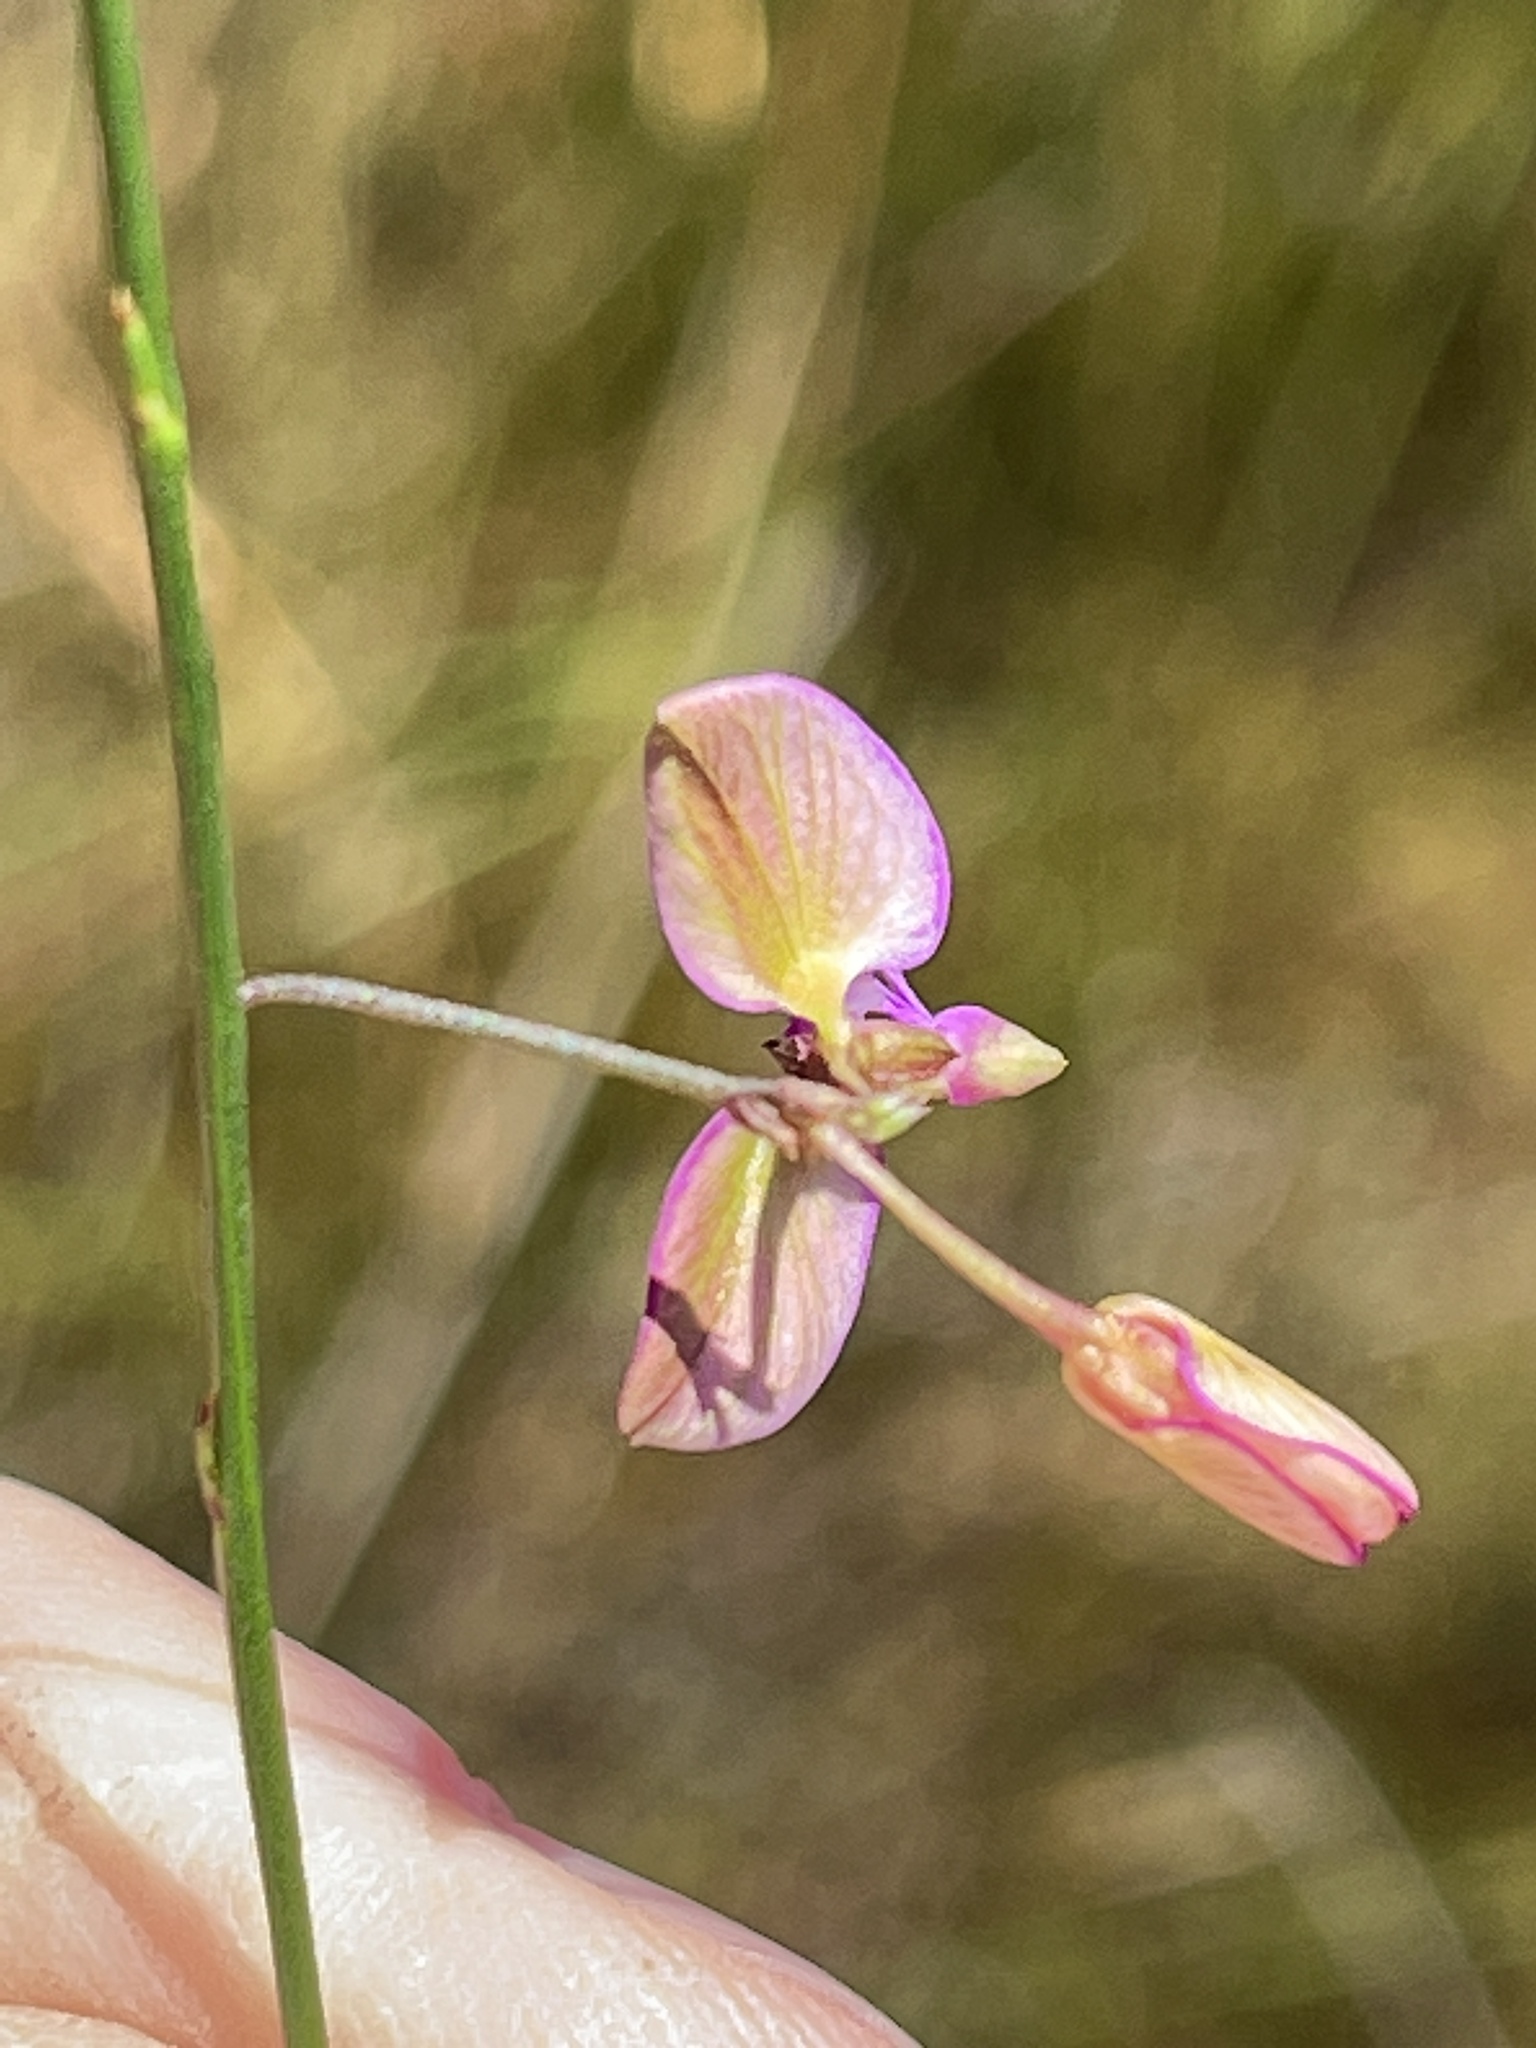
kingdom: Plantae
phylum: Tracheophyta
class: Magnoliopsida
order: Fabales
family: Polygalaceae
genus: Polygala
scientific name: Polygala refracta
